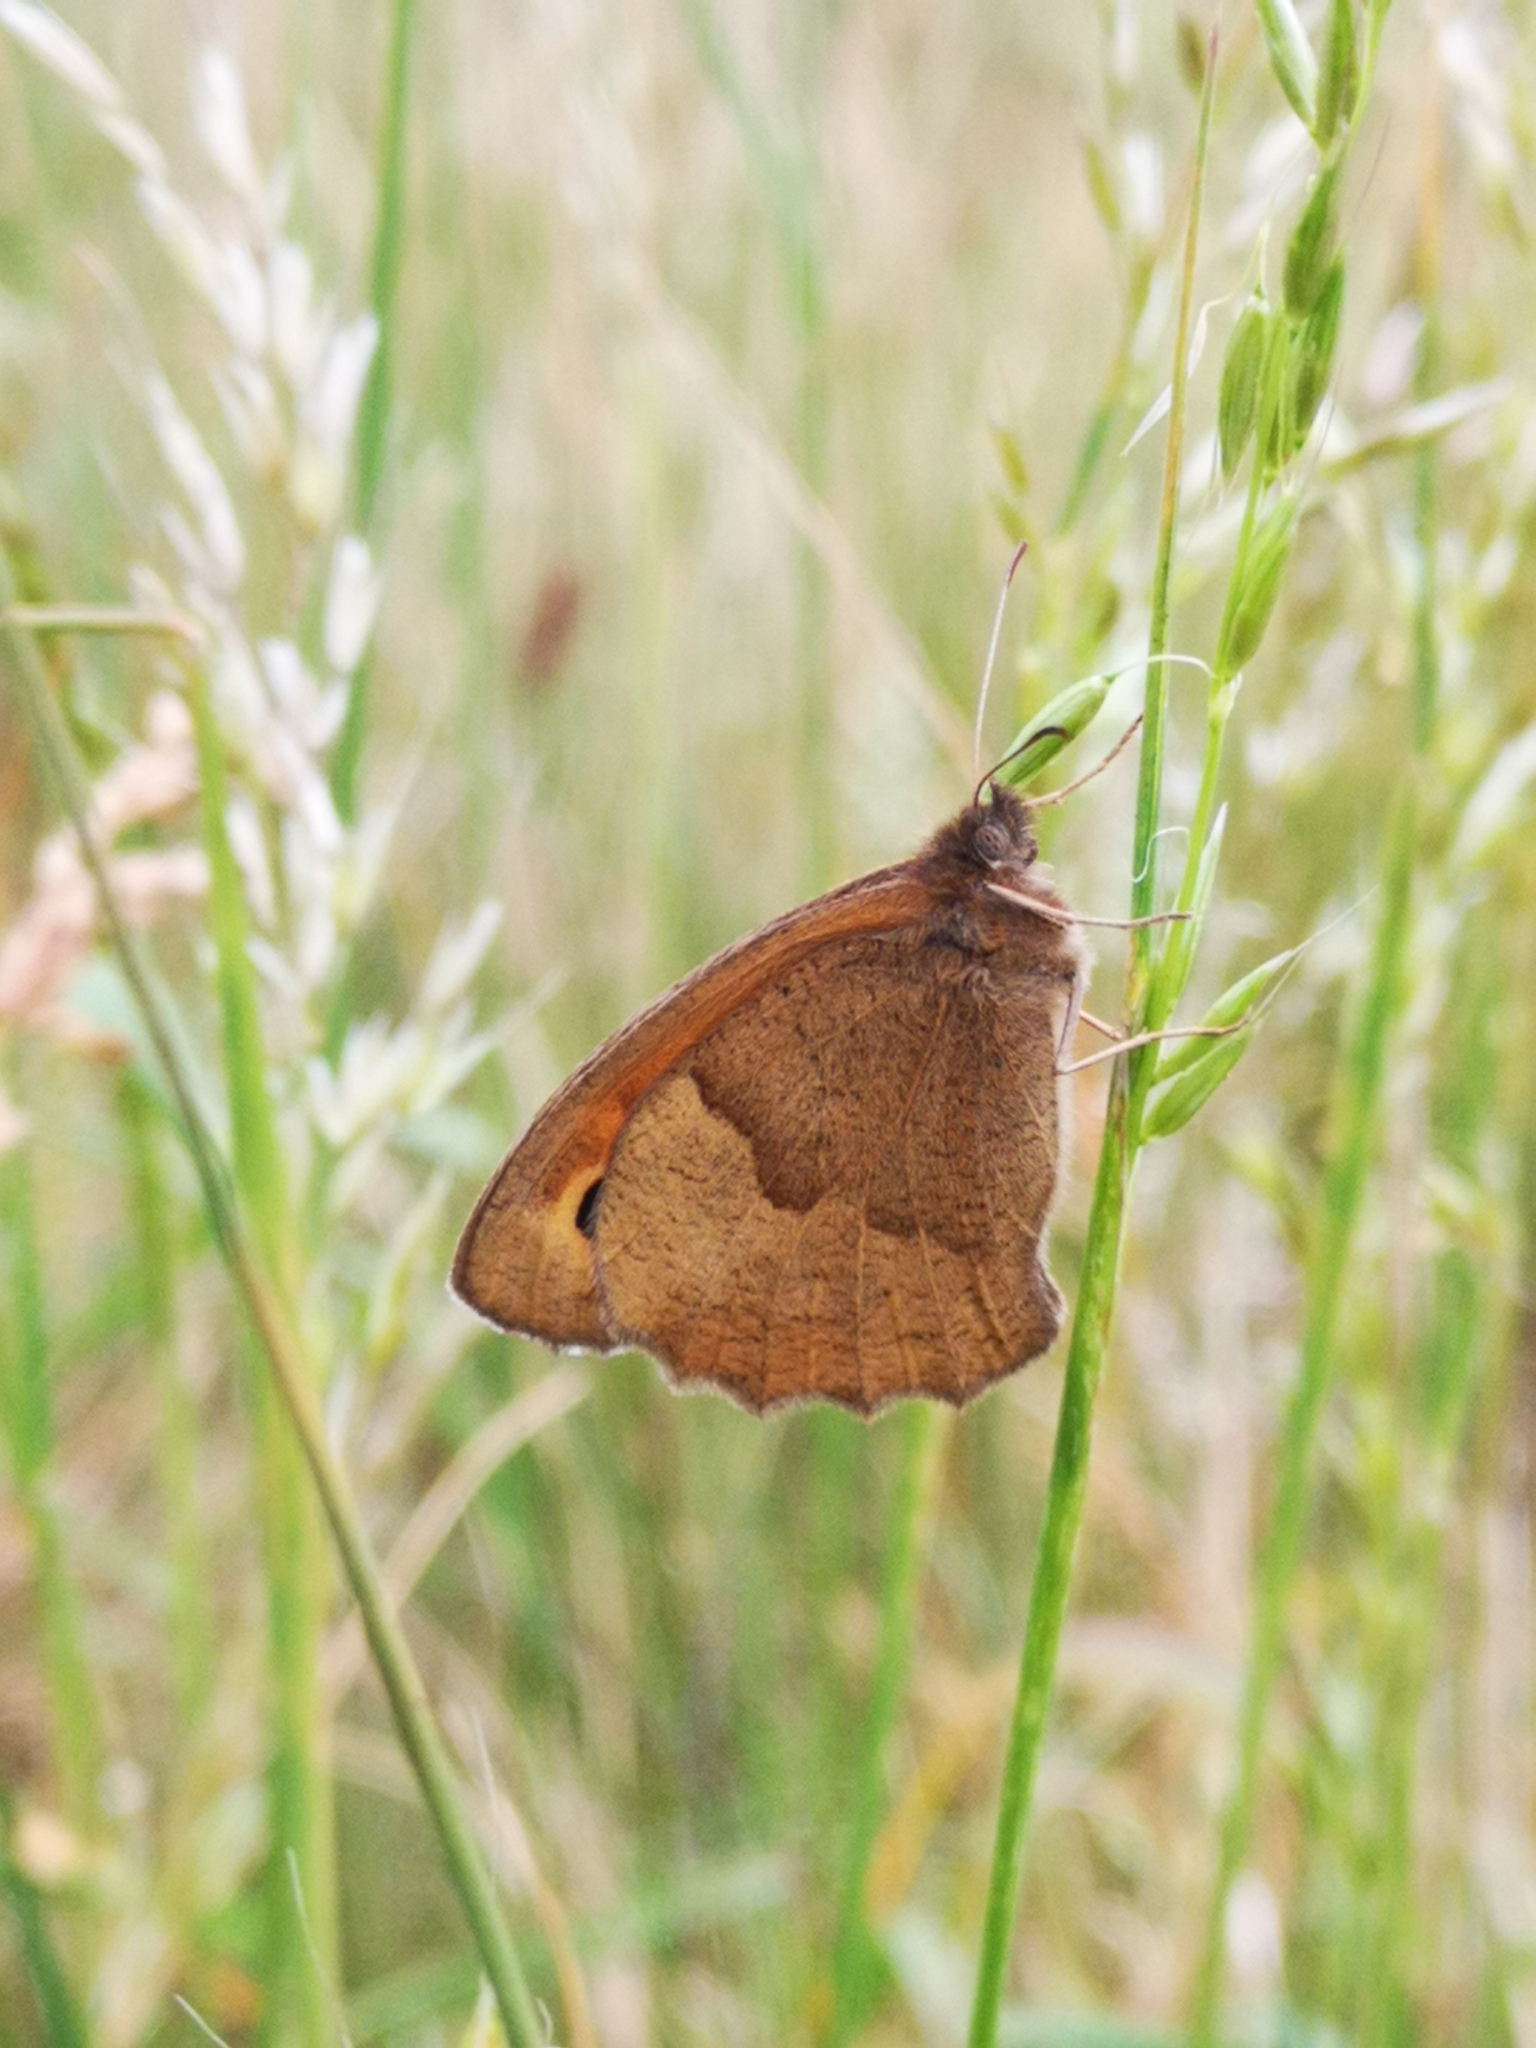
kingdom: Animalia
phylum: Arthropoda
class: Insecta
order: Lepidoptera
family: Nymphalidae
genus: Maniola
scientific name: Maniola jurtina
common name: Meadow brown
